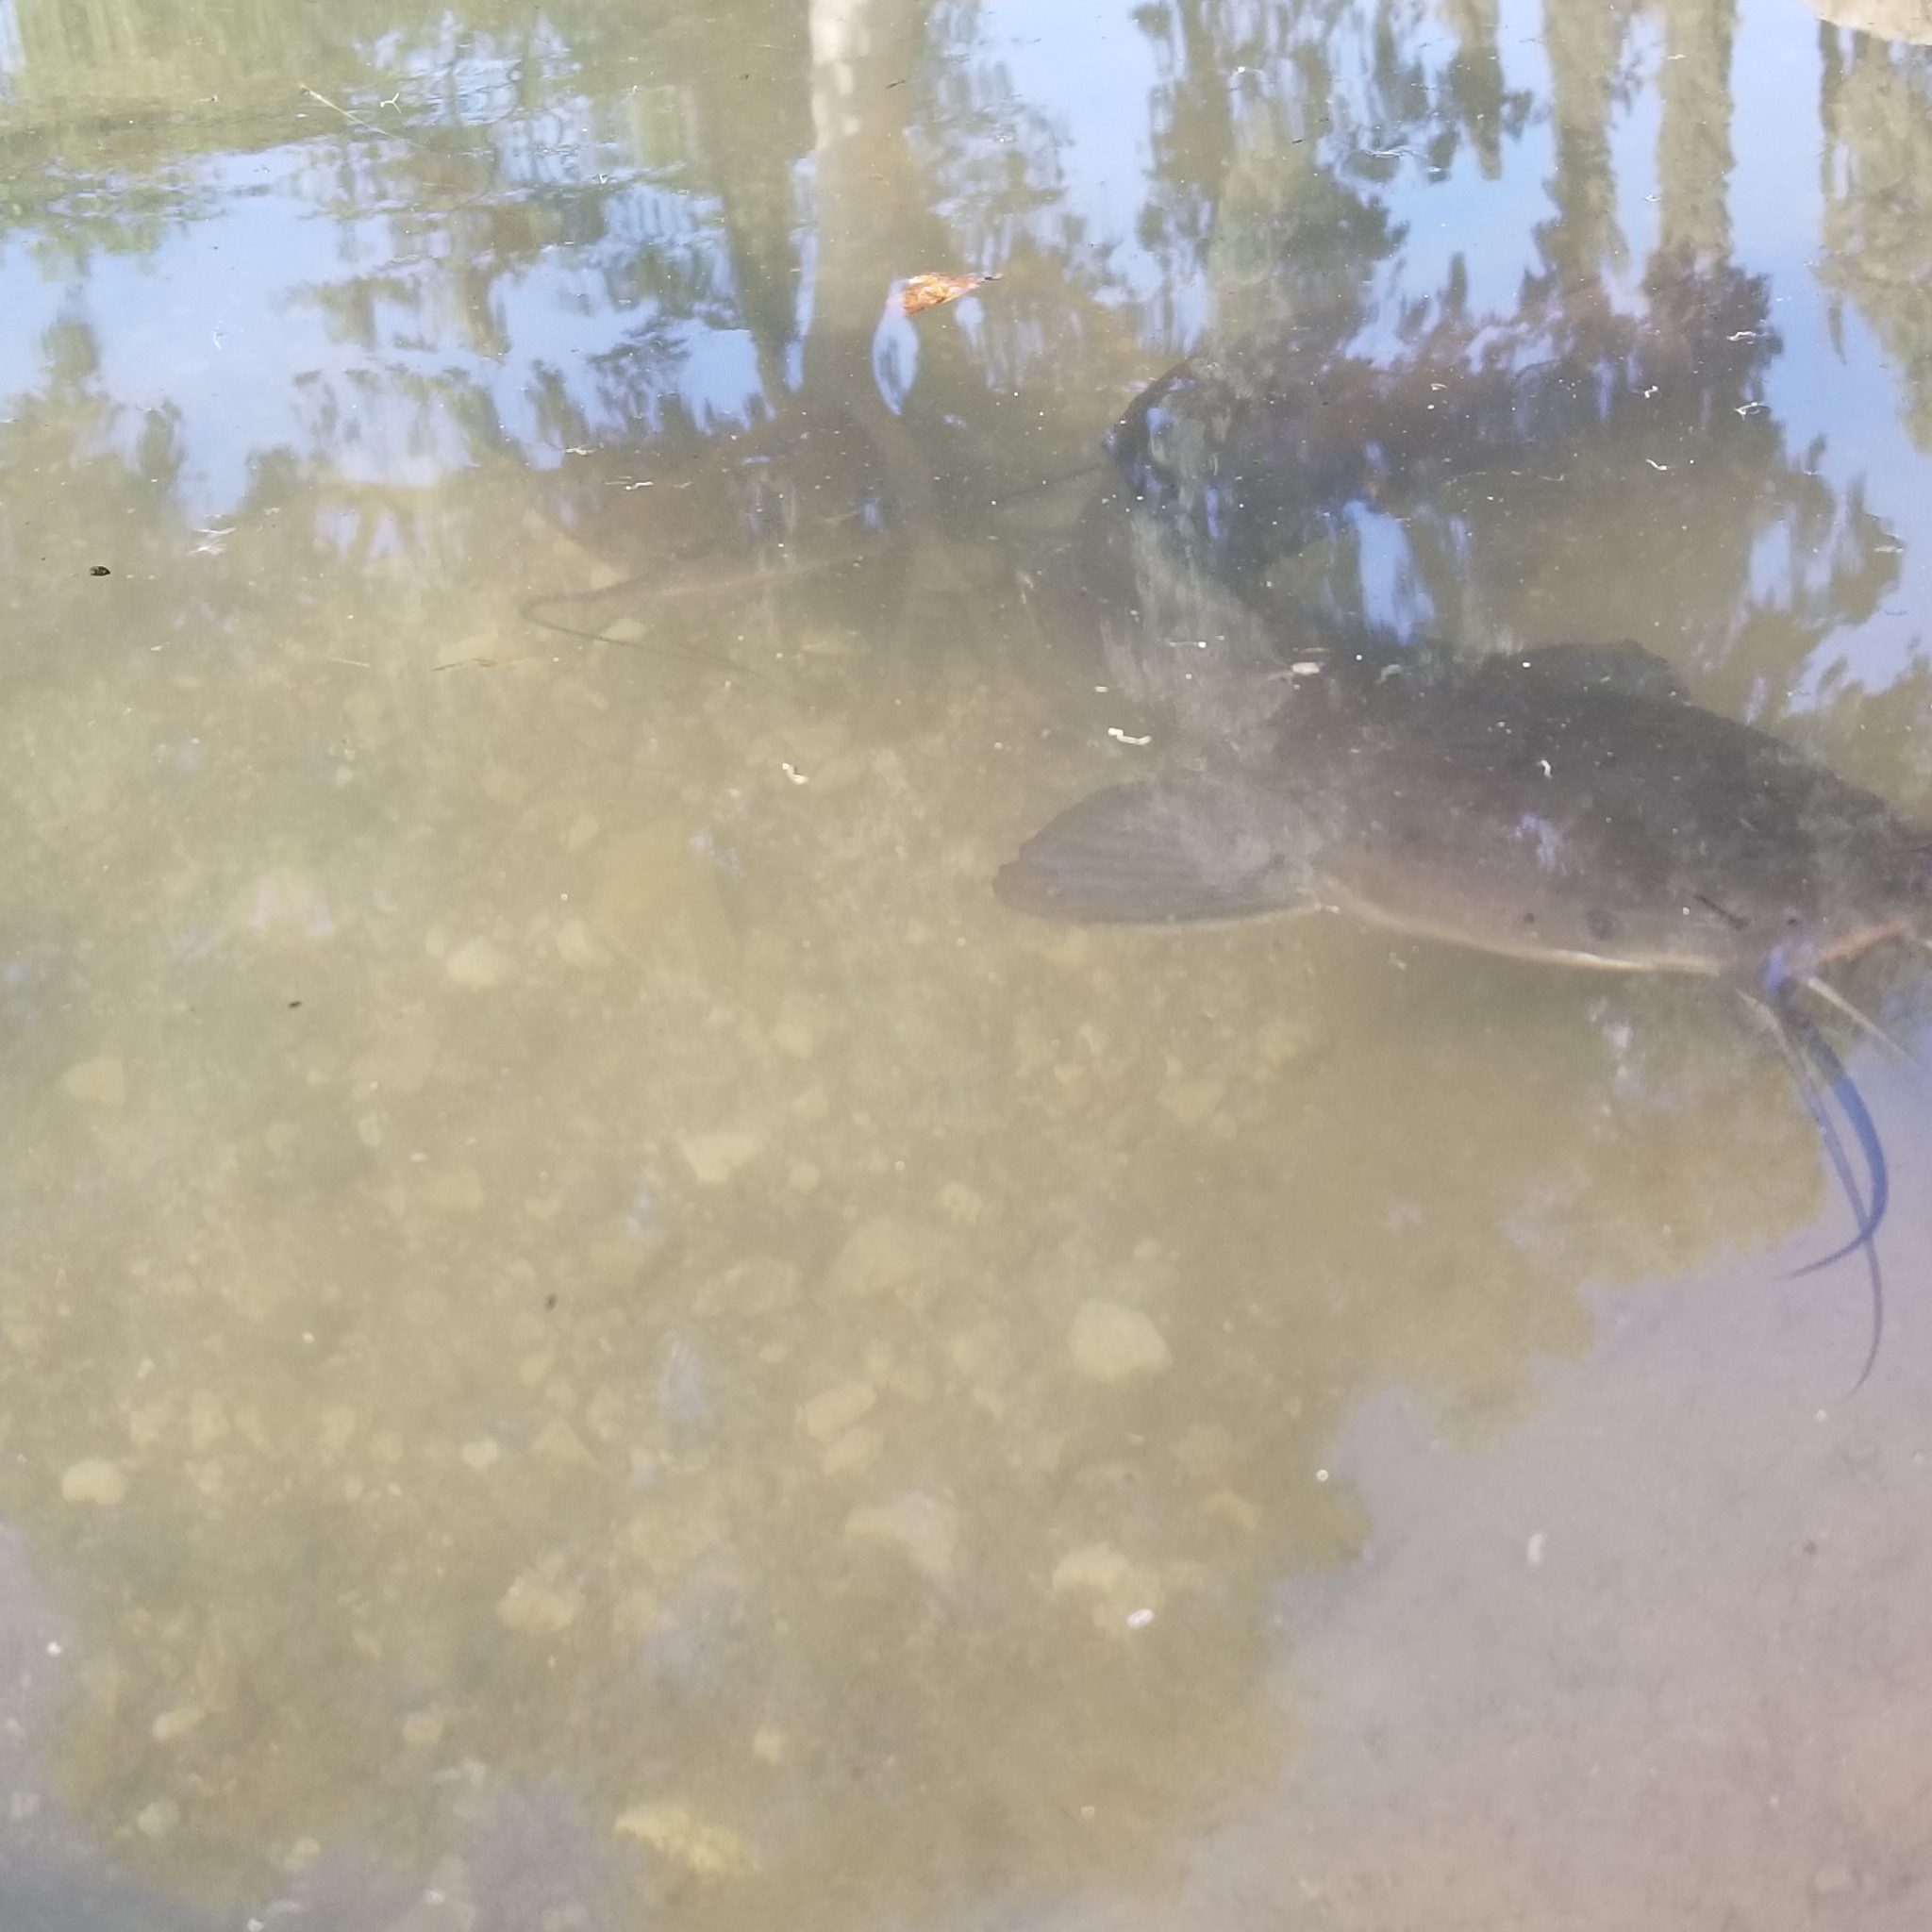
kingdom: Animalia
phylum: Chordata
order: Siluriformes
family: Clariidae
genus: Clarias
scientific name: Clarias gariepinus
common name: African catfish
